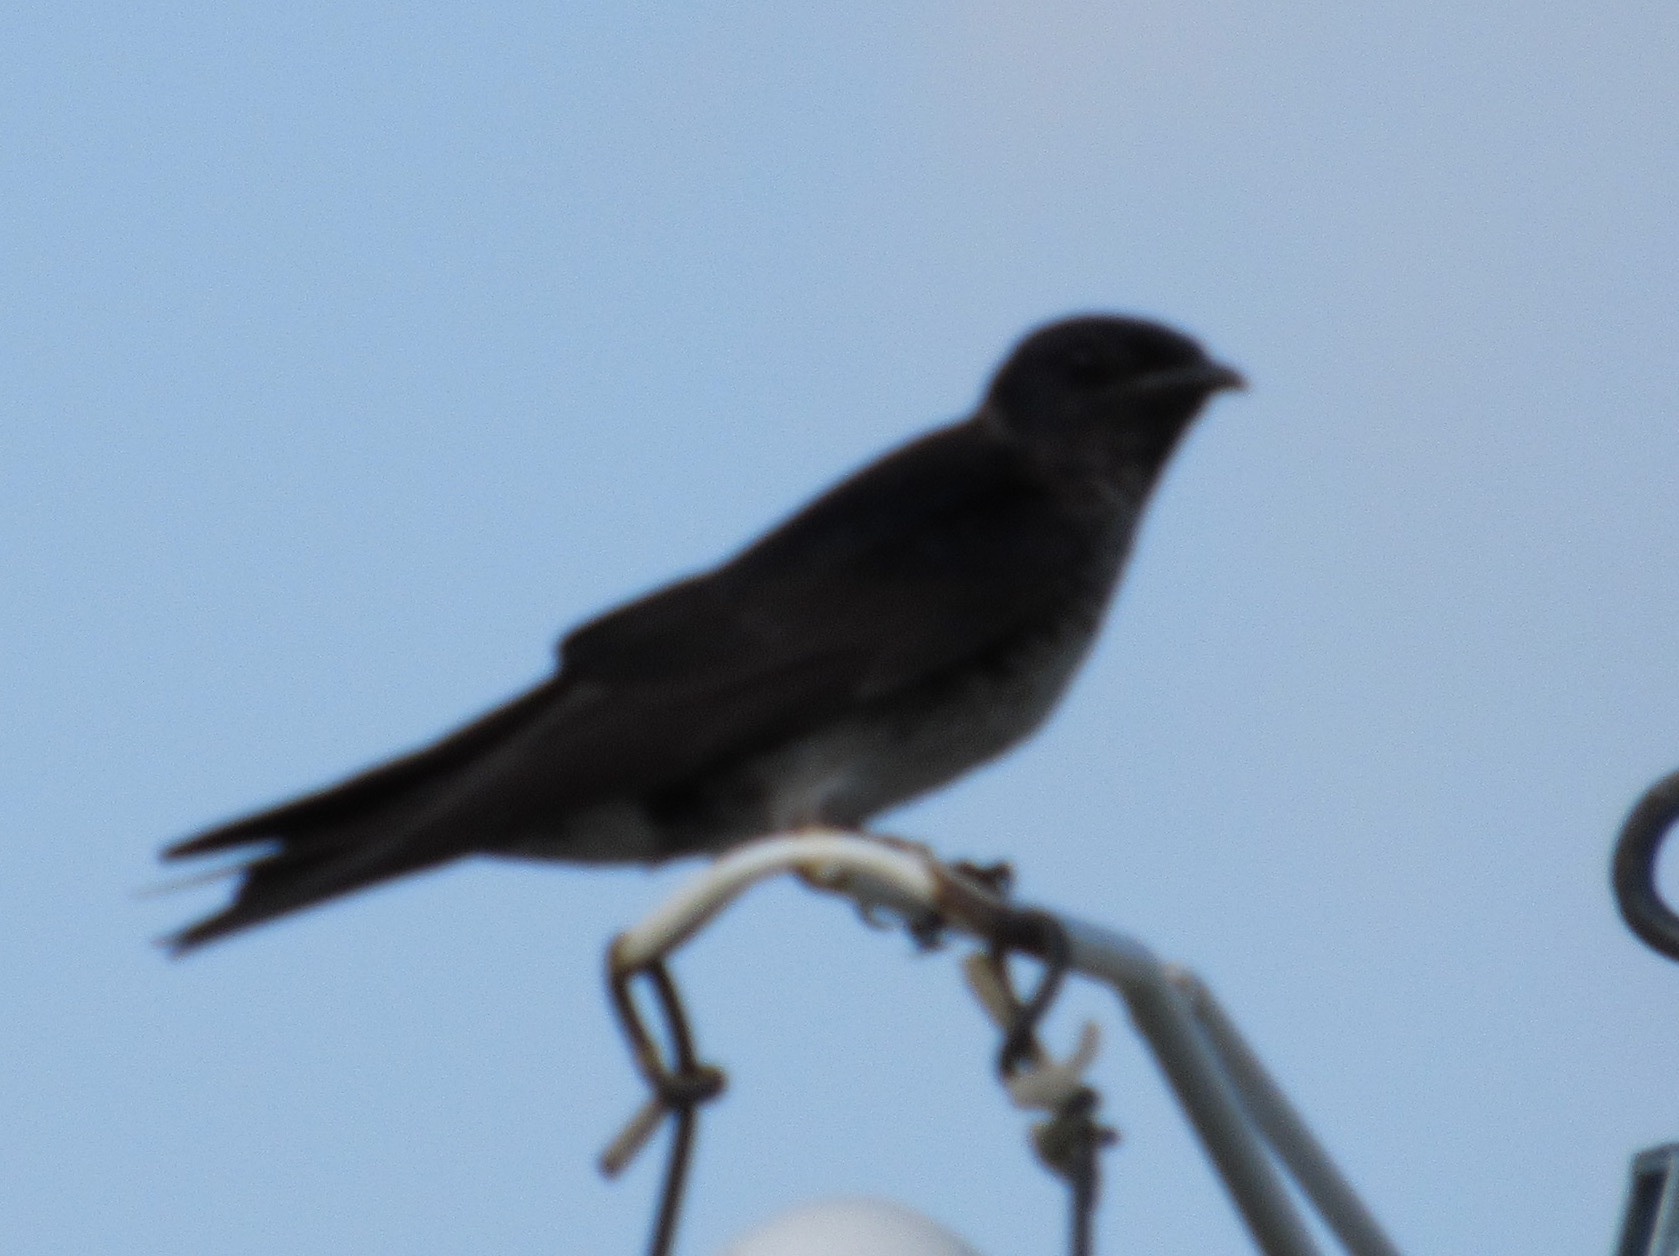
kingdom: Animalia
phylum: Chordata
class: Aves
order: Passeriformes
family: Hirundinidae
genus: Progne
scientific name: Progne subis
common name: Purple martin
